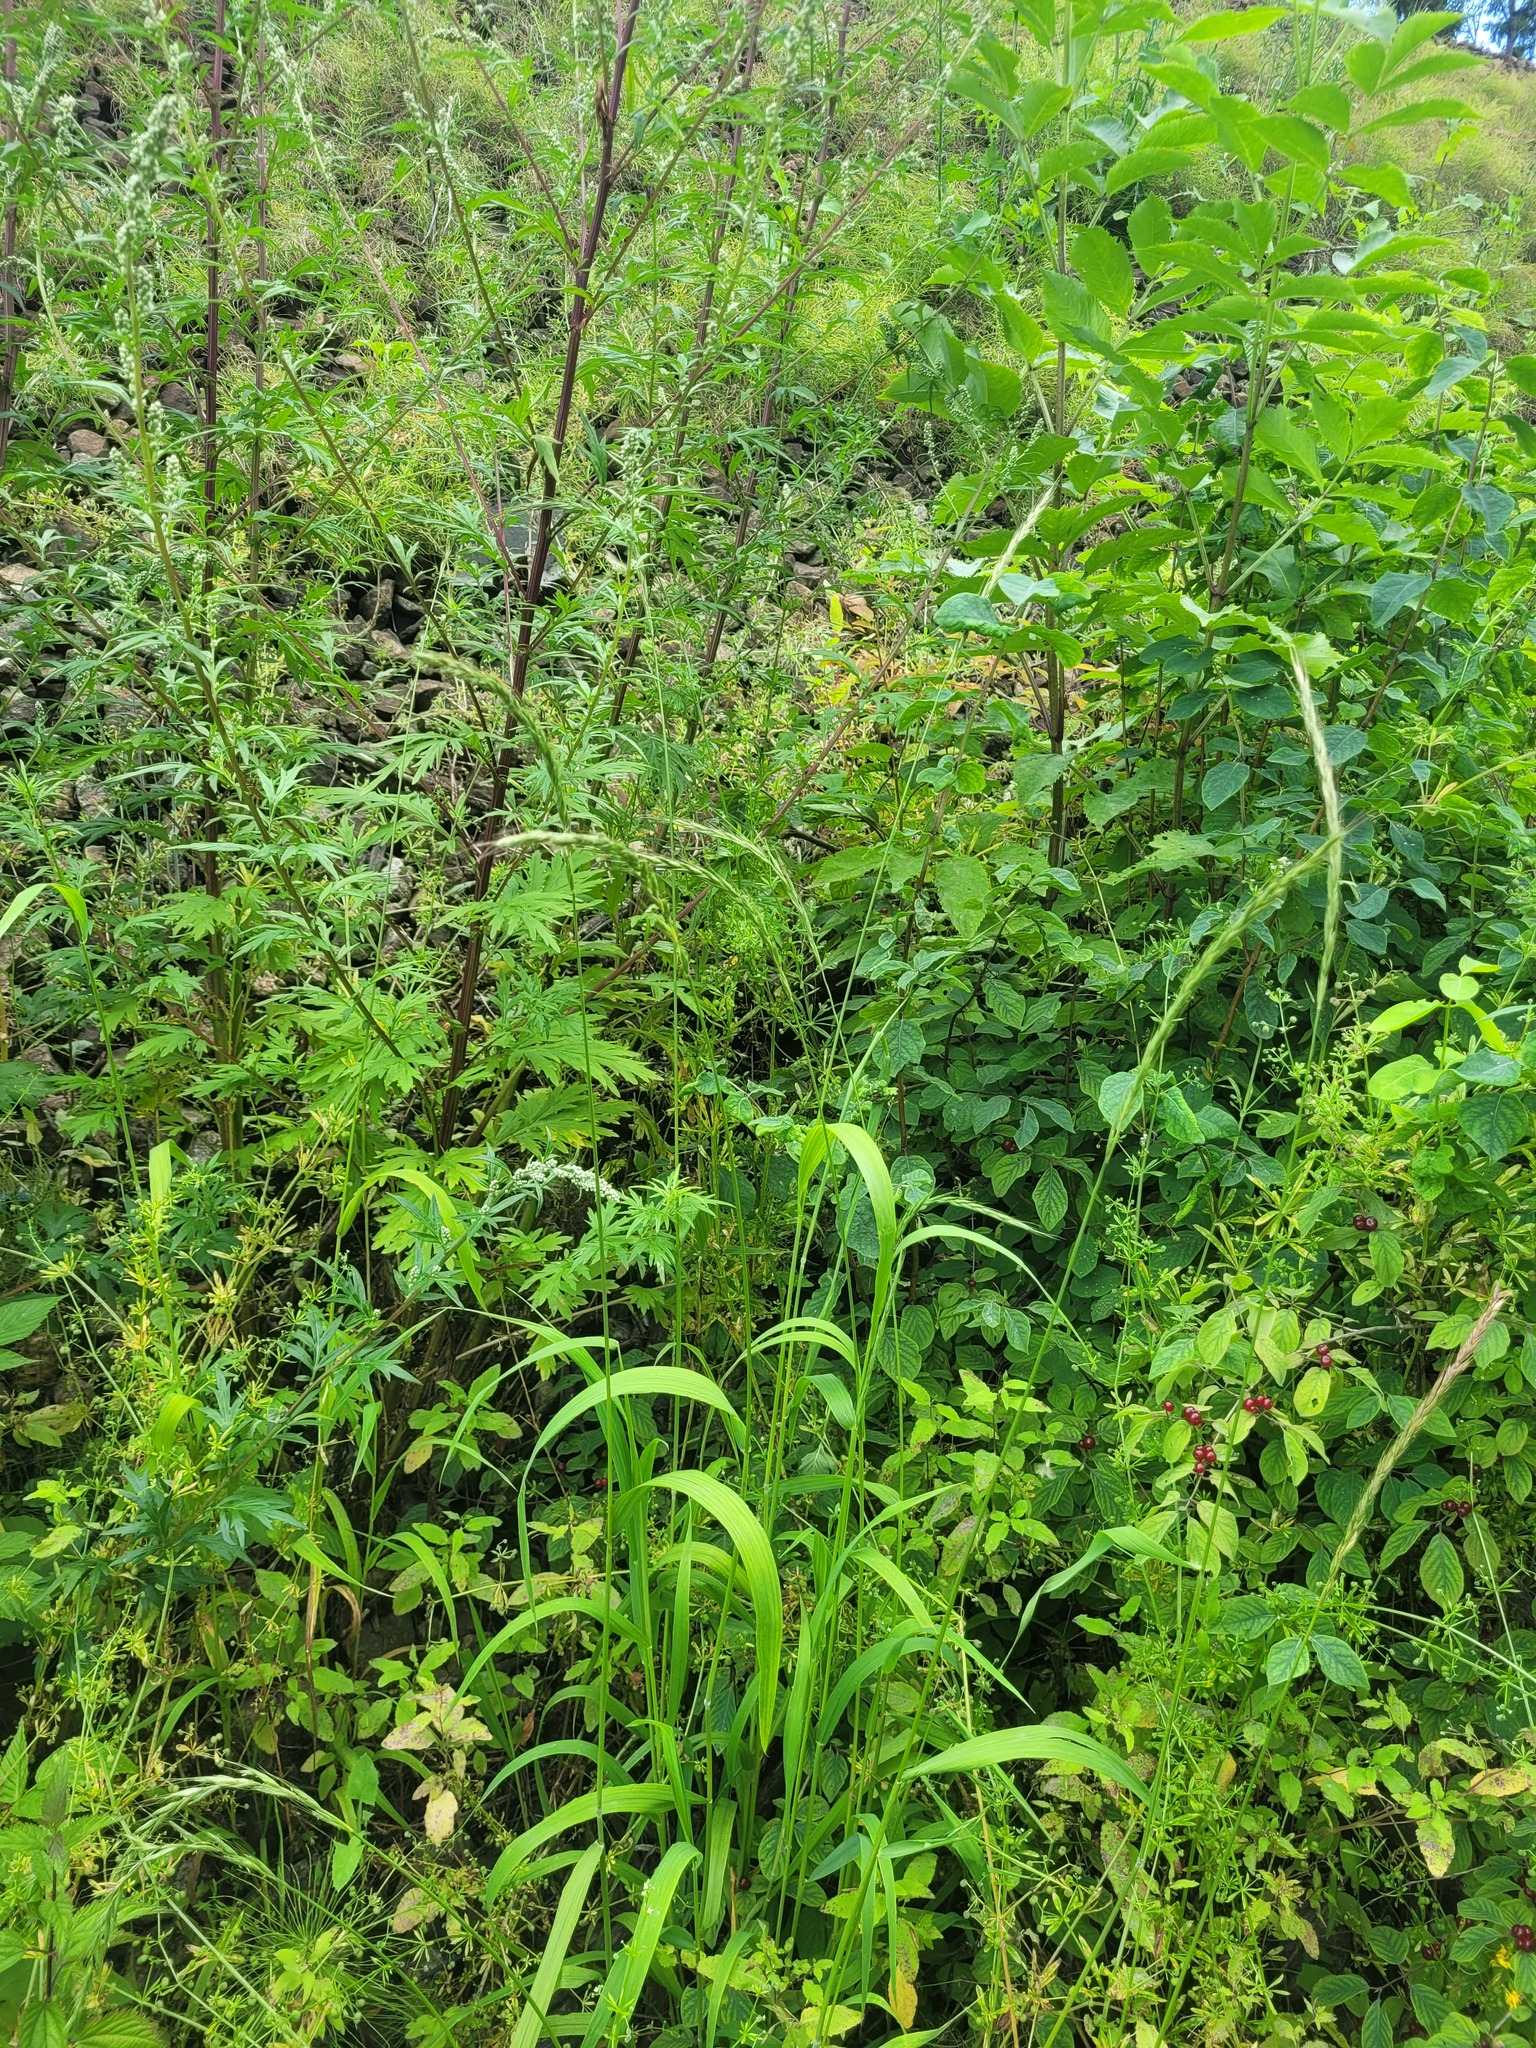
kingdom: Plantae
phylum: Tracheophyta
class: Liliopsida
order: Poales
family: Poaceae
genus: Elymus
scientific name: Elymus caninus
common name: Bearded couch
